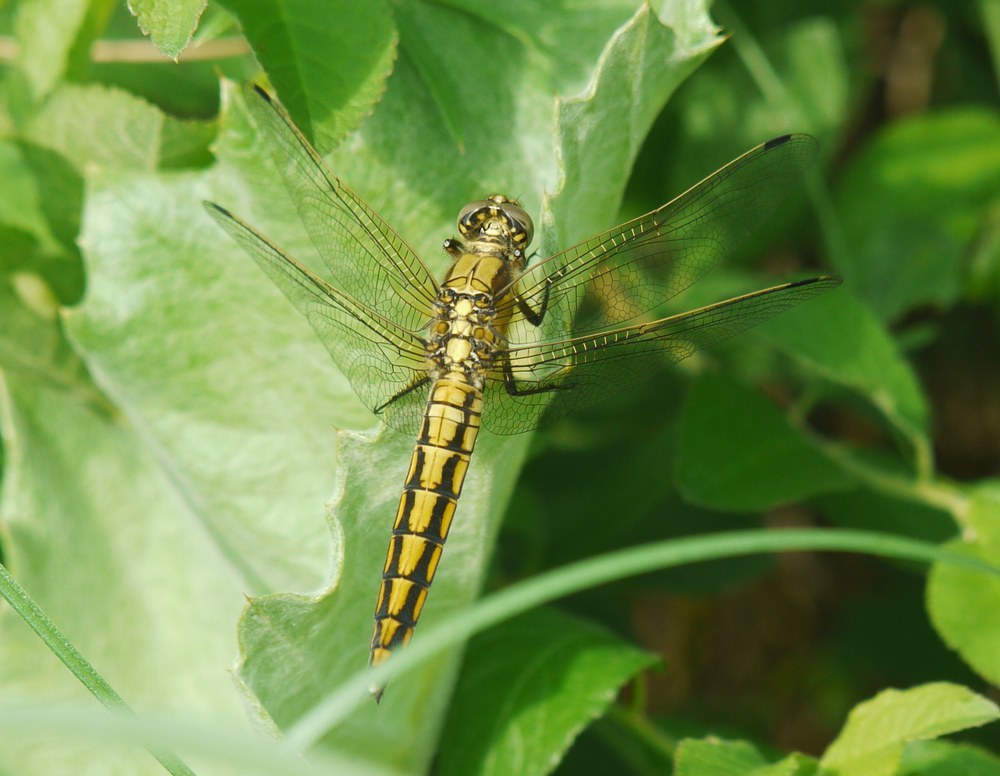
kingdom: Animalia
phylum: Arthropoda
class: Insecta
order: Odonata
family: Libellulidae
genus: Orthetrum
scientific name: Orthetrum cancellatum
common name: Black-tailed skimmer
